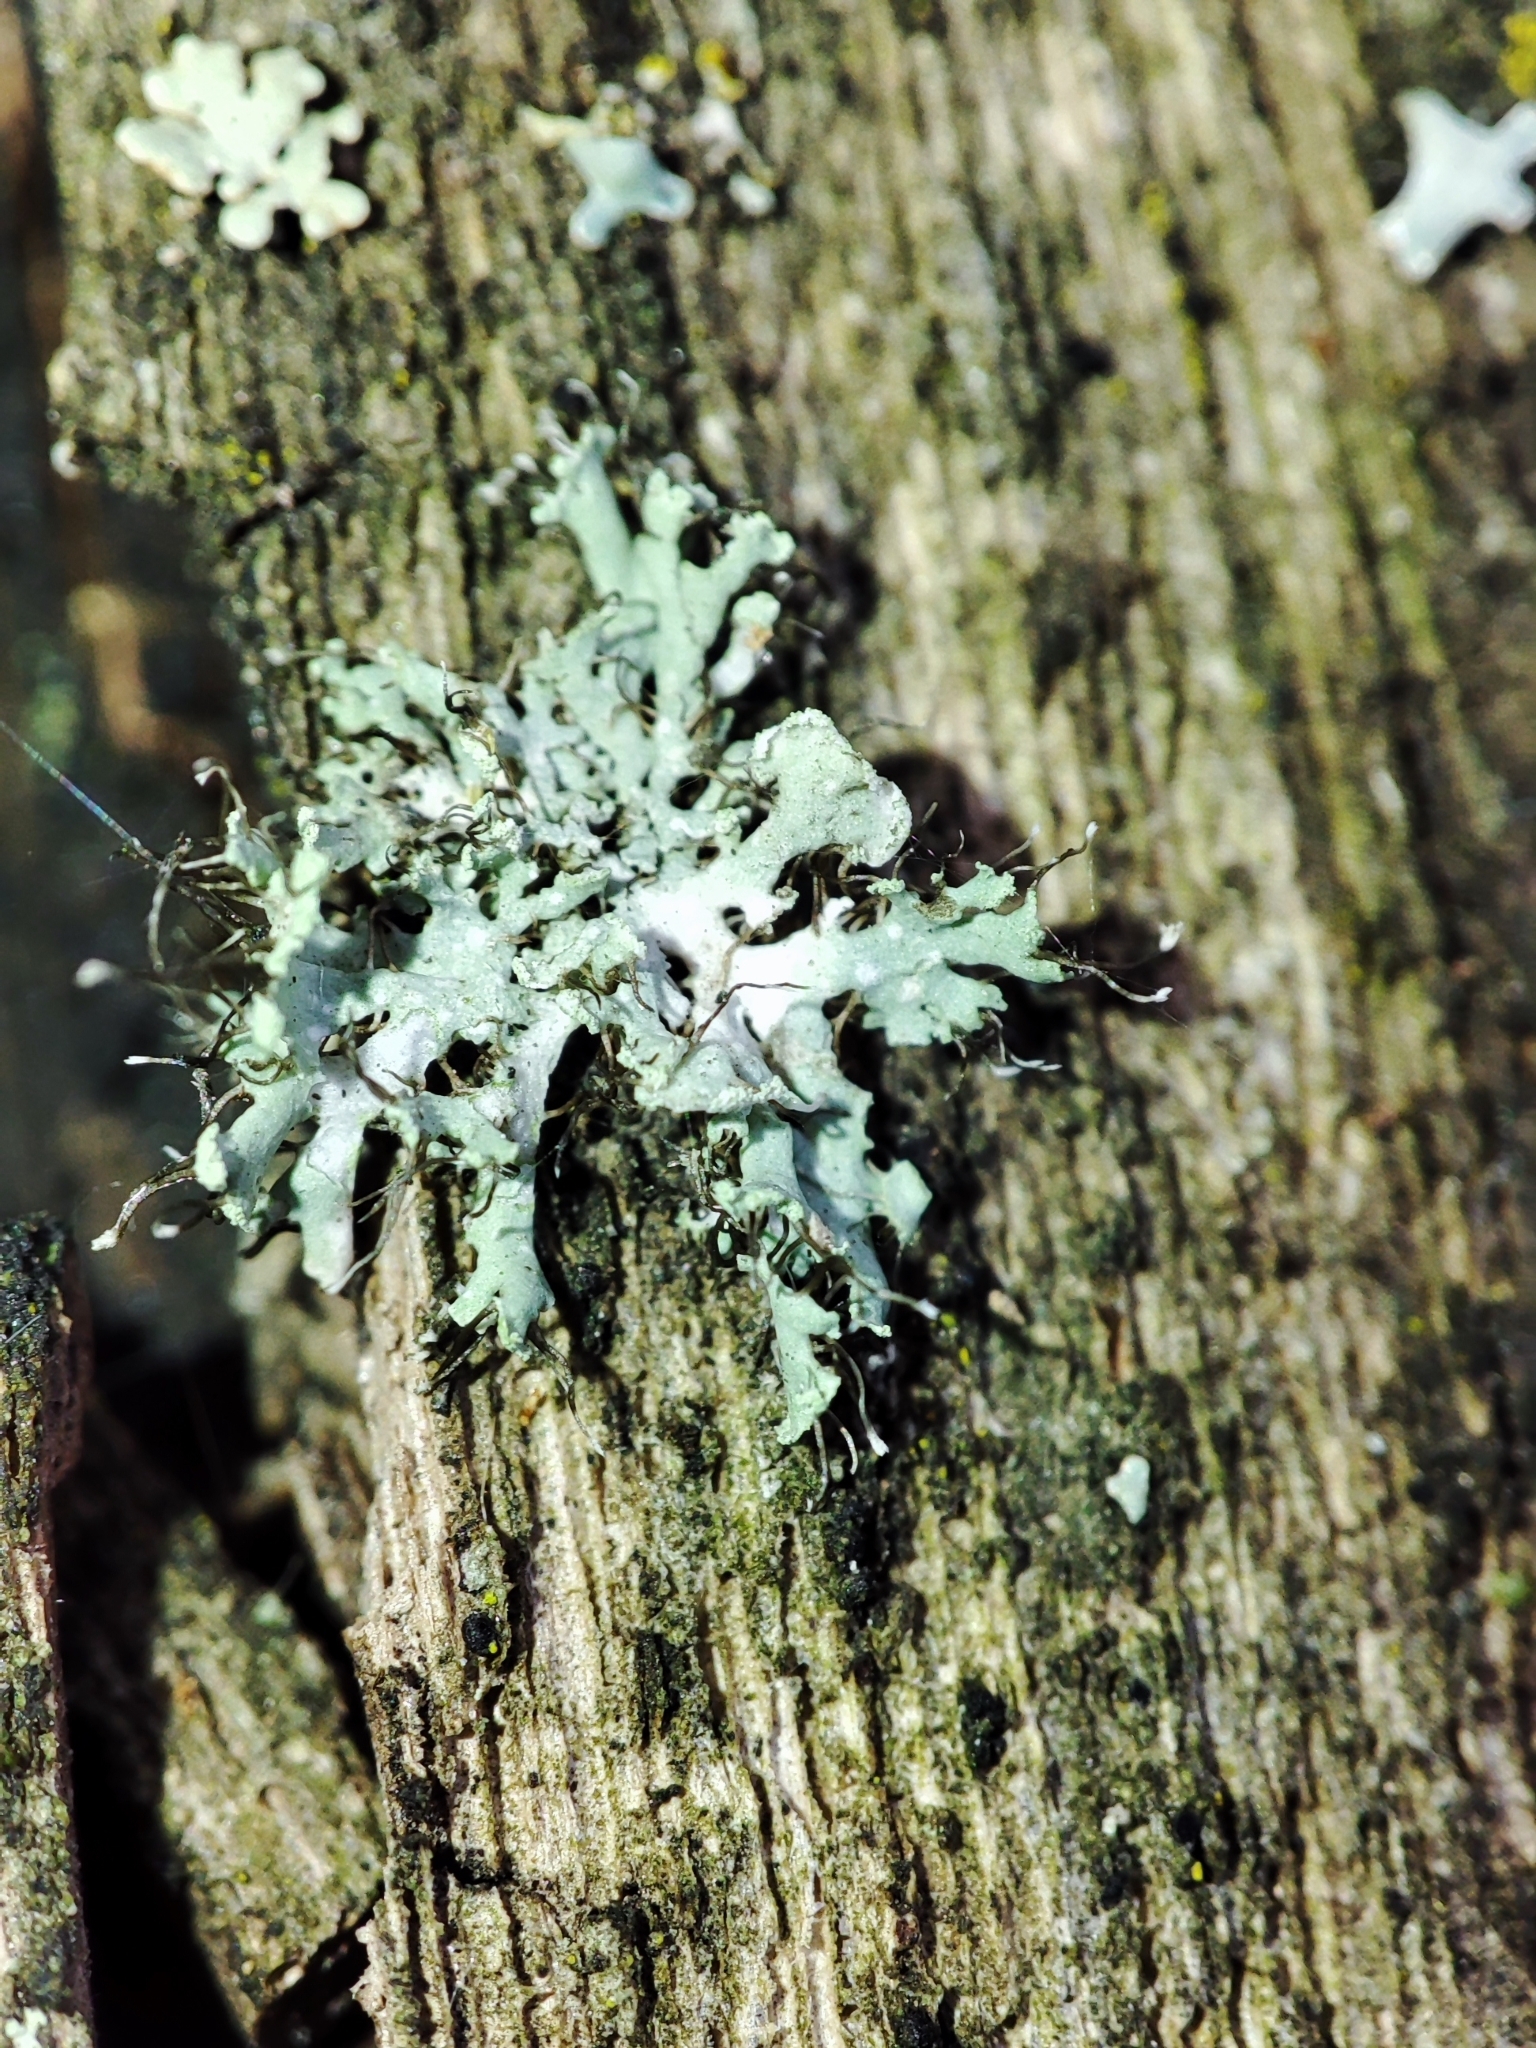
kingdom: Fungi
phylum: Ascomycota
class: Lecanoromycetes
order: Caliciales
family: Physciaceae
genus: Physcia
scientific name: Physcia tenella
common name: Fringed rosette lichen
